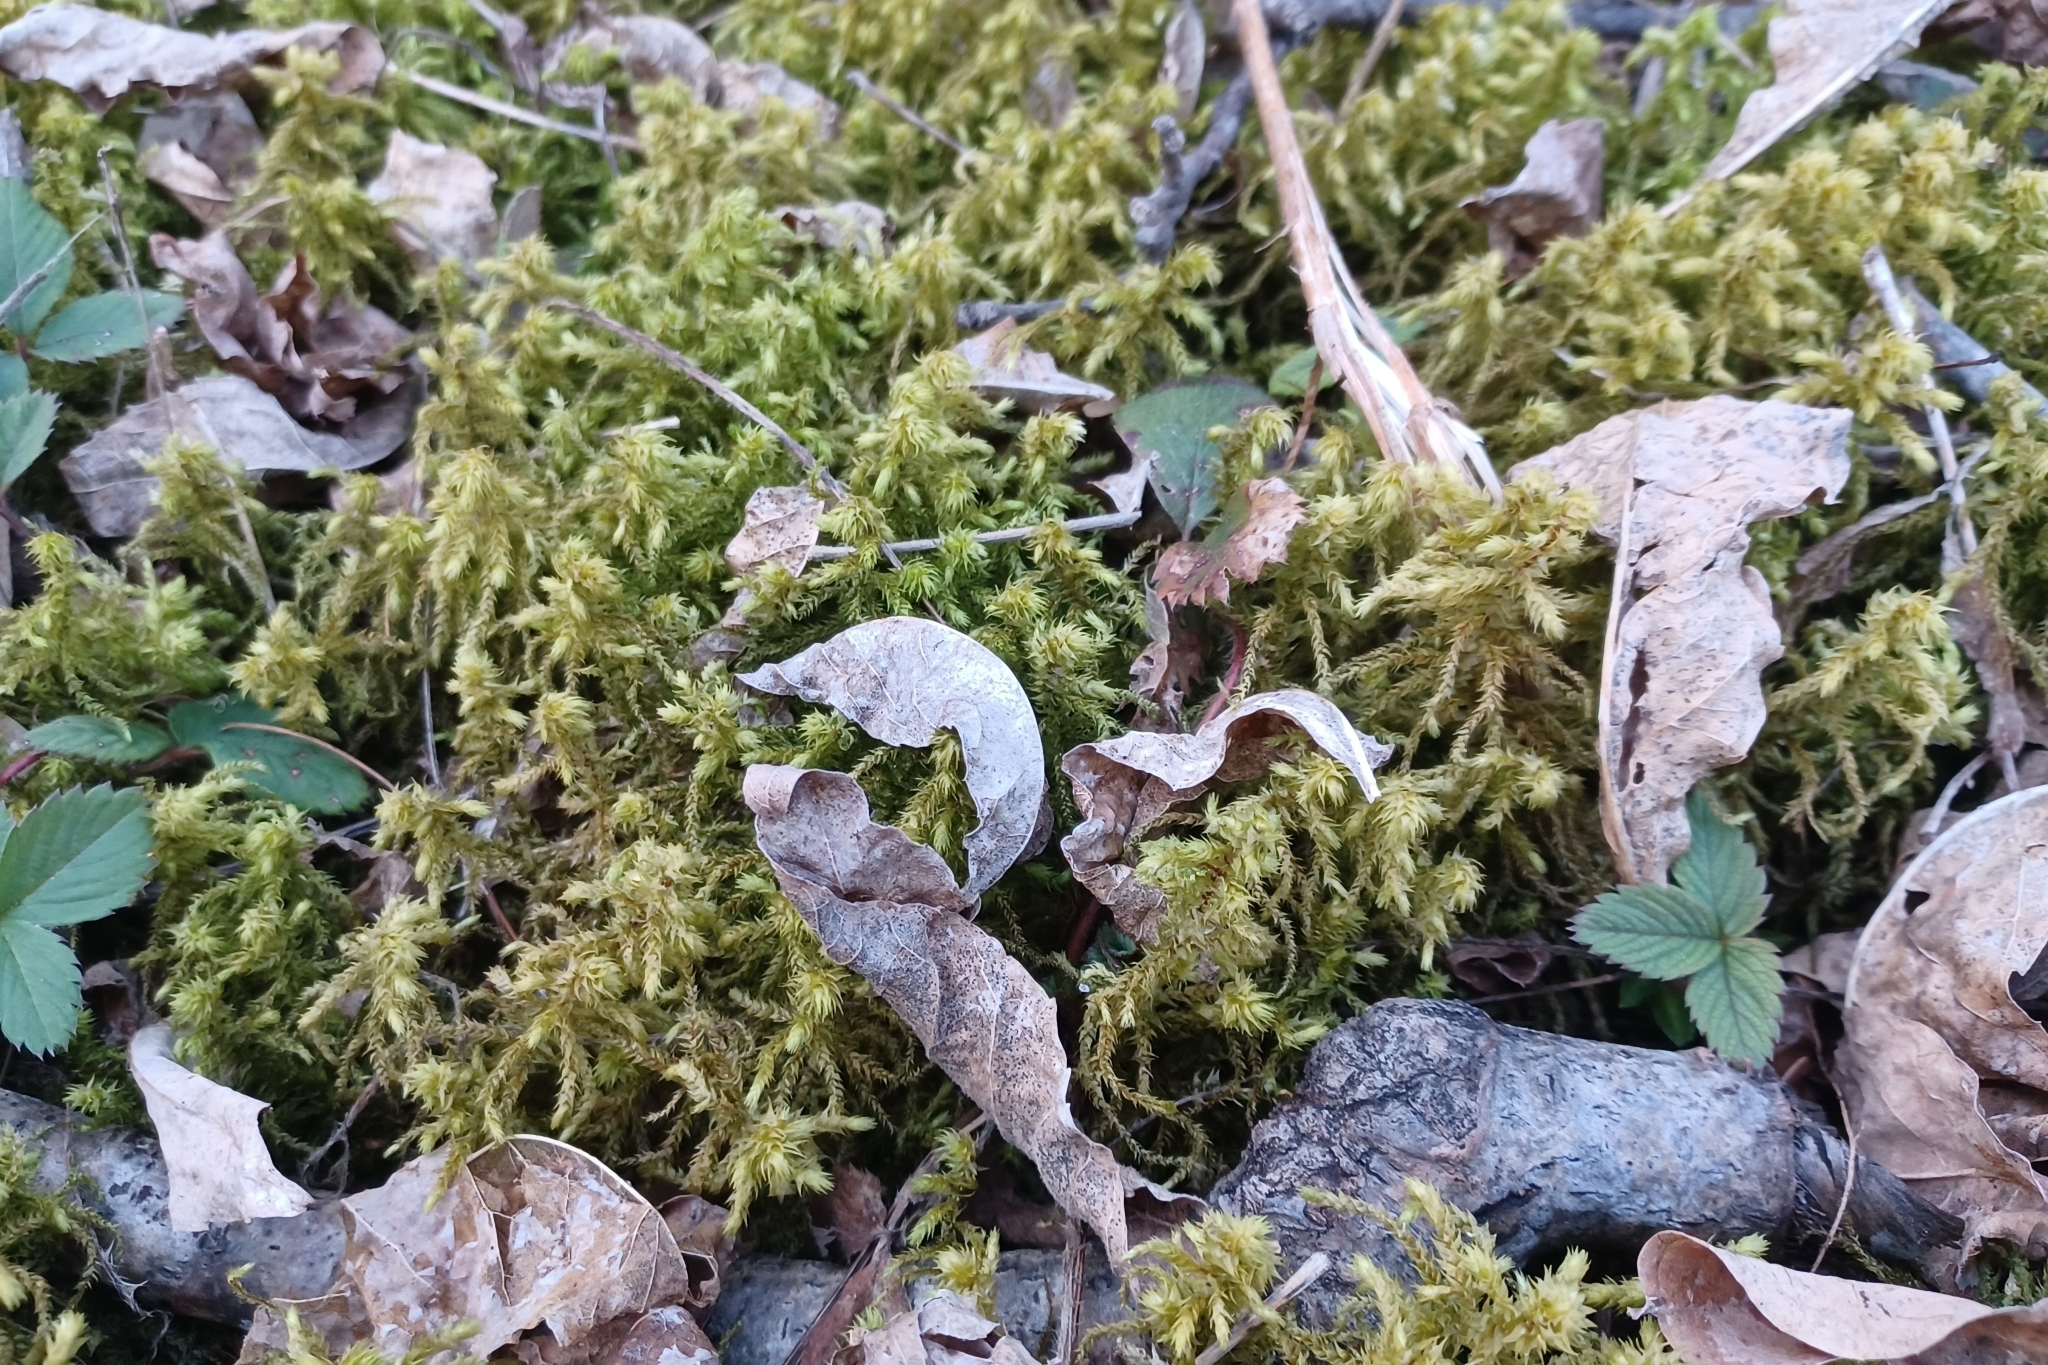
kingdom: Plantae
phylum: Bryophyta
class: Bryopsida
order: Hypnales
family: Hylocomiaceae
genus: Hylocomiadelphus
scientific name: Hylocomiadelphus triquetrus
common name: Rough goose neck moss
